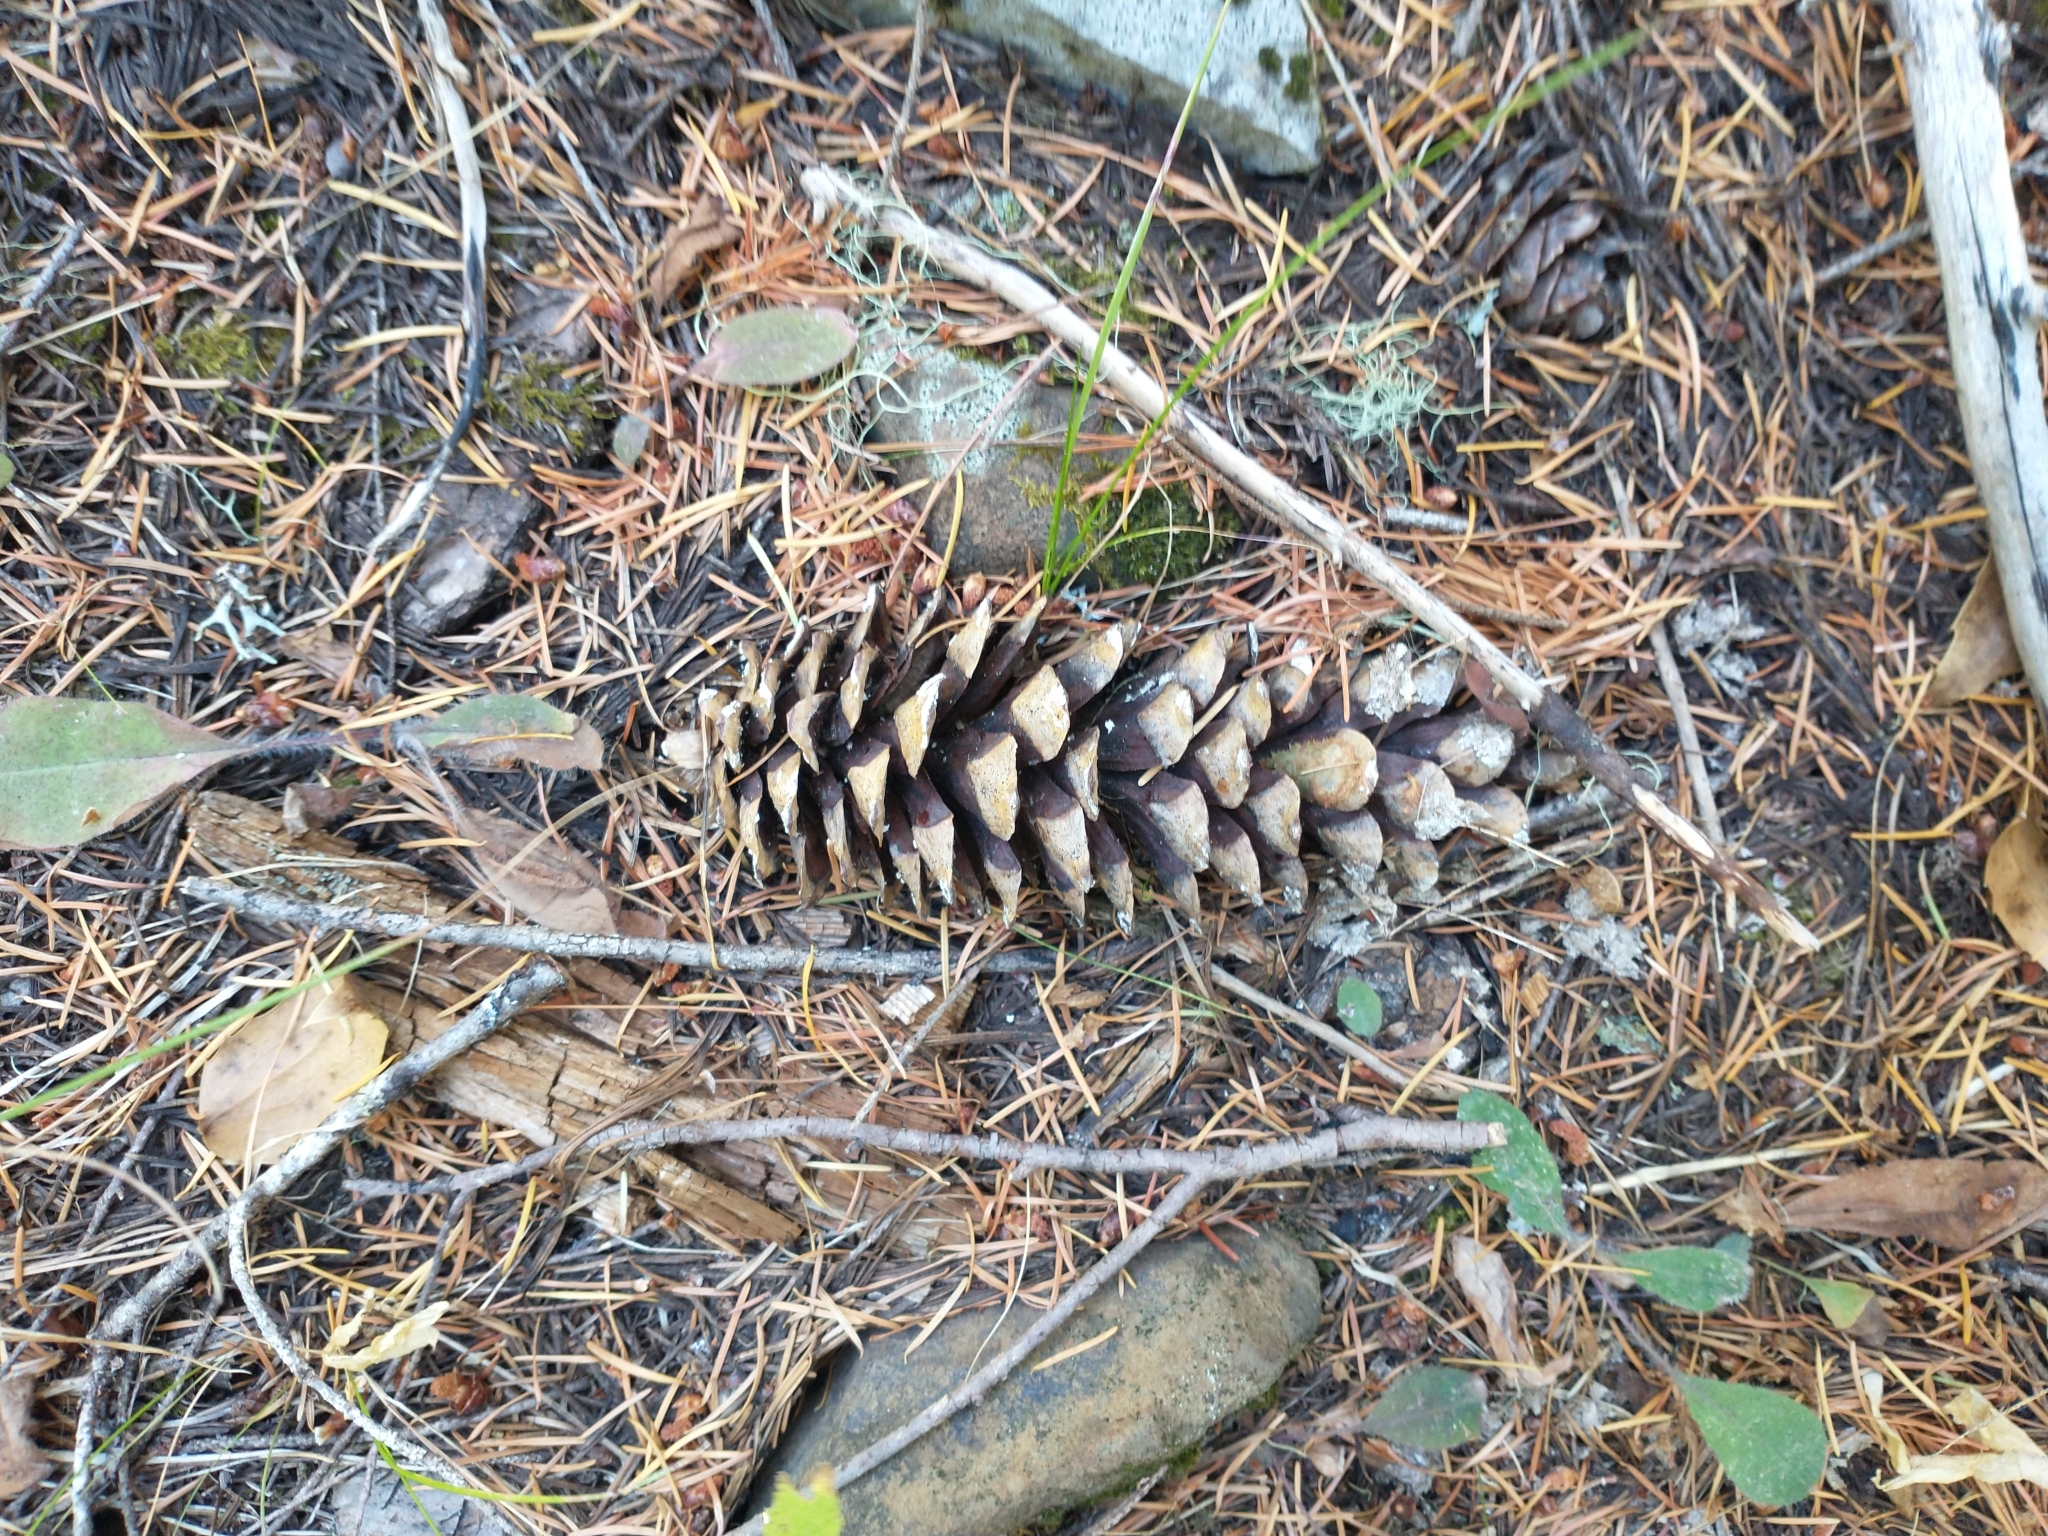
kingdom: Plantae
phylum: Tracheophyta
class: Pinopsida
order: Pinales
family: Pinaceae
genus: Pinus
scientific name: Pinus monticola
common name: Western white pine
